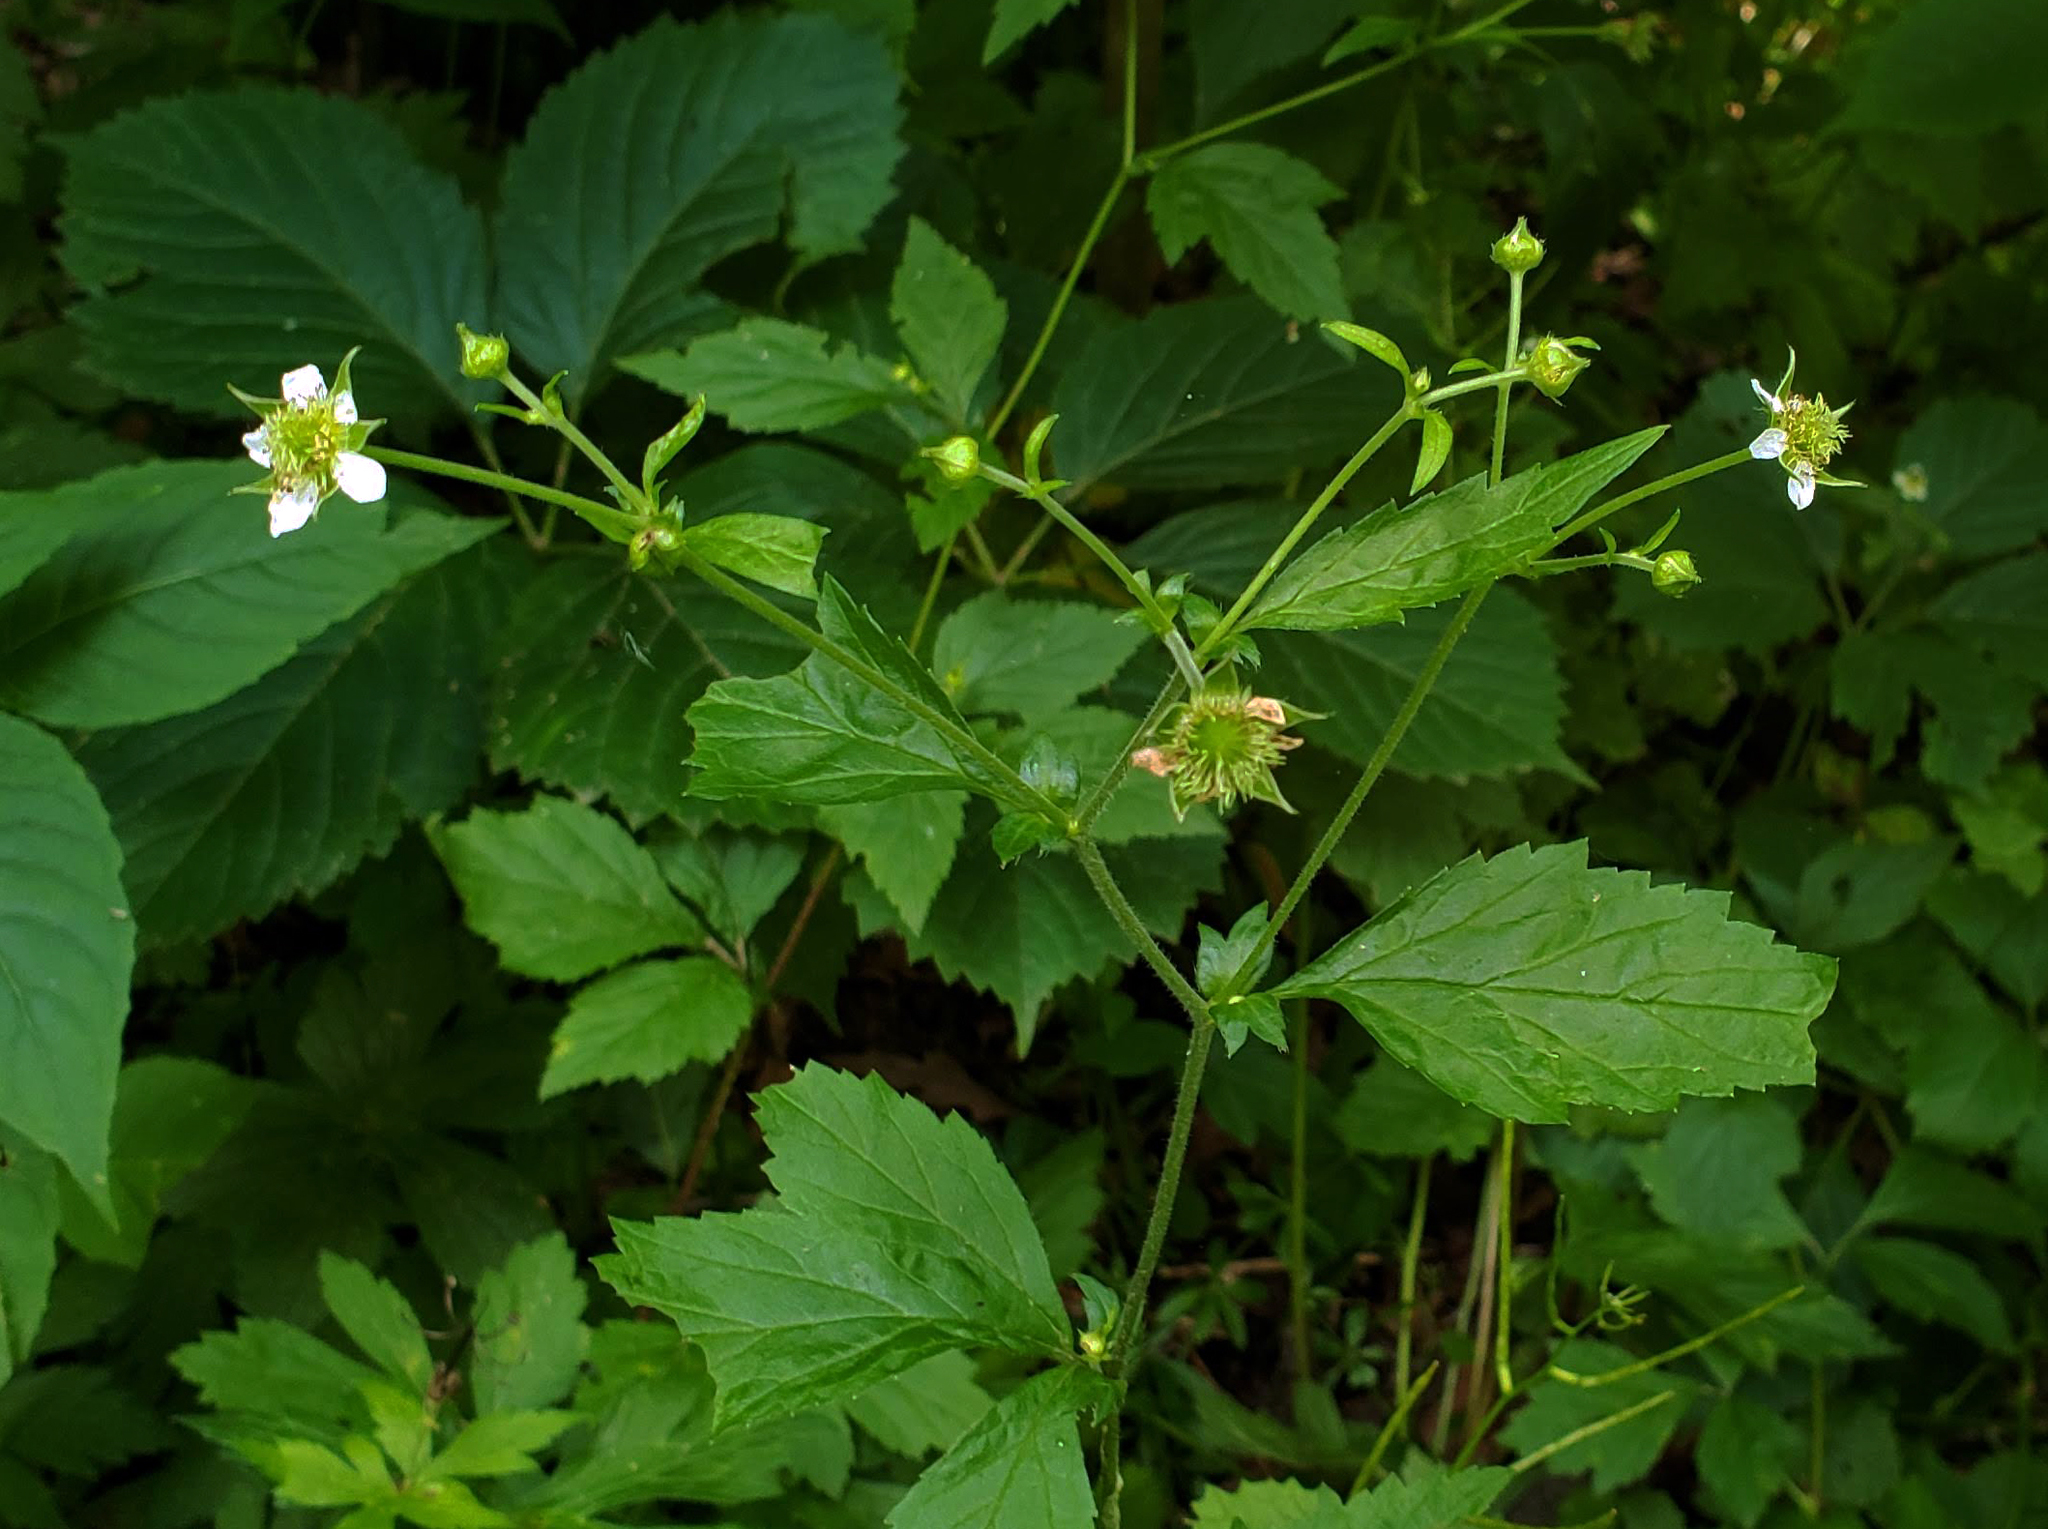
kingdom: Plantae
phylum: Tracheophyta
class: Magnoliopsida
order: Rosales
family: Rosaceae
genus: Geum
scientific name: Geum canadense
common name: White avens
